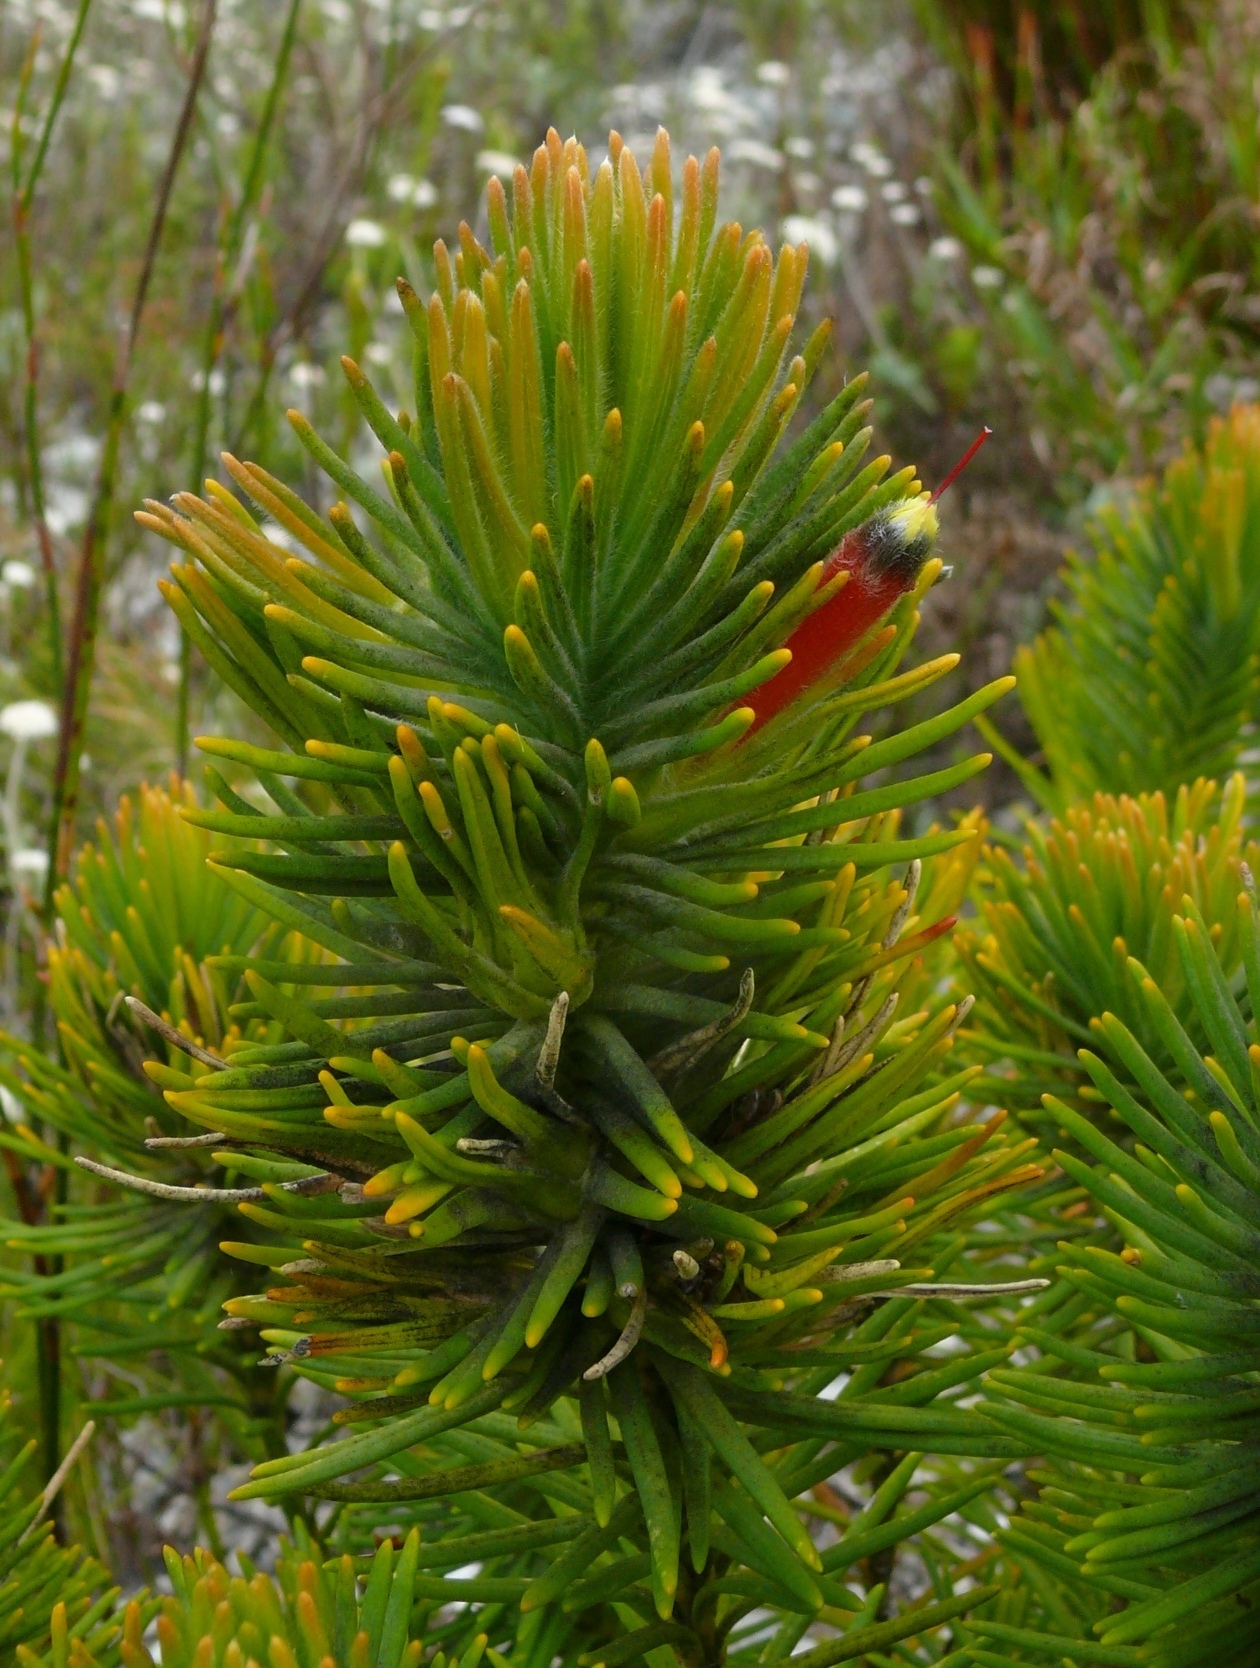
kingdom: Plantae
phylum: Tracheophyta
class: Magnoliopsida
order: Lamiales
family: Stilbaceae
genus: Retzia
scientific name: Retzia capensis
